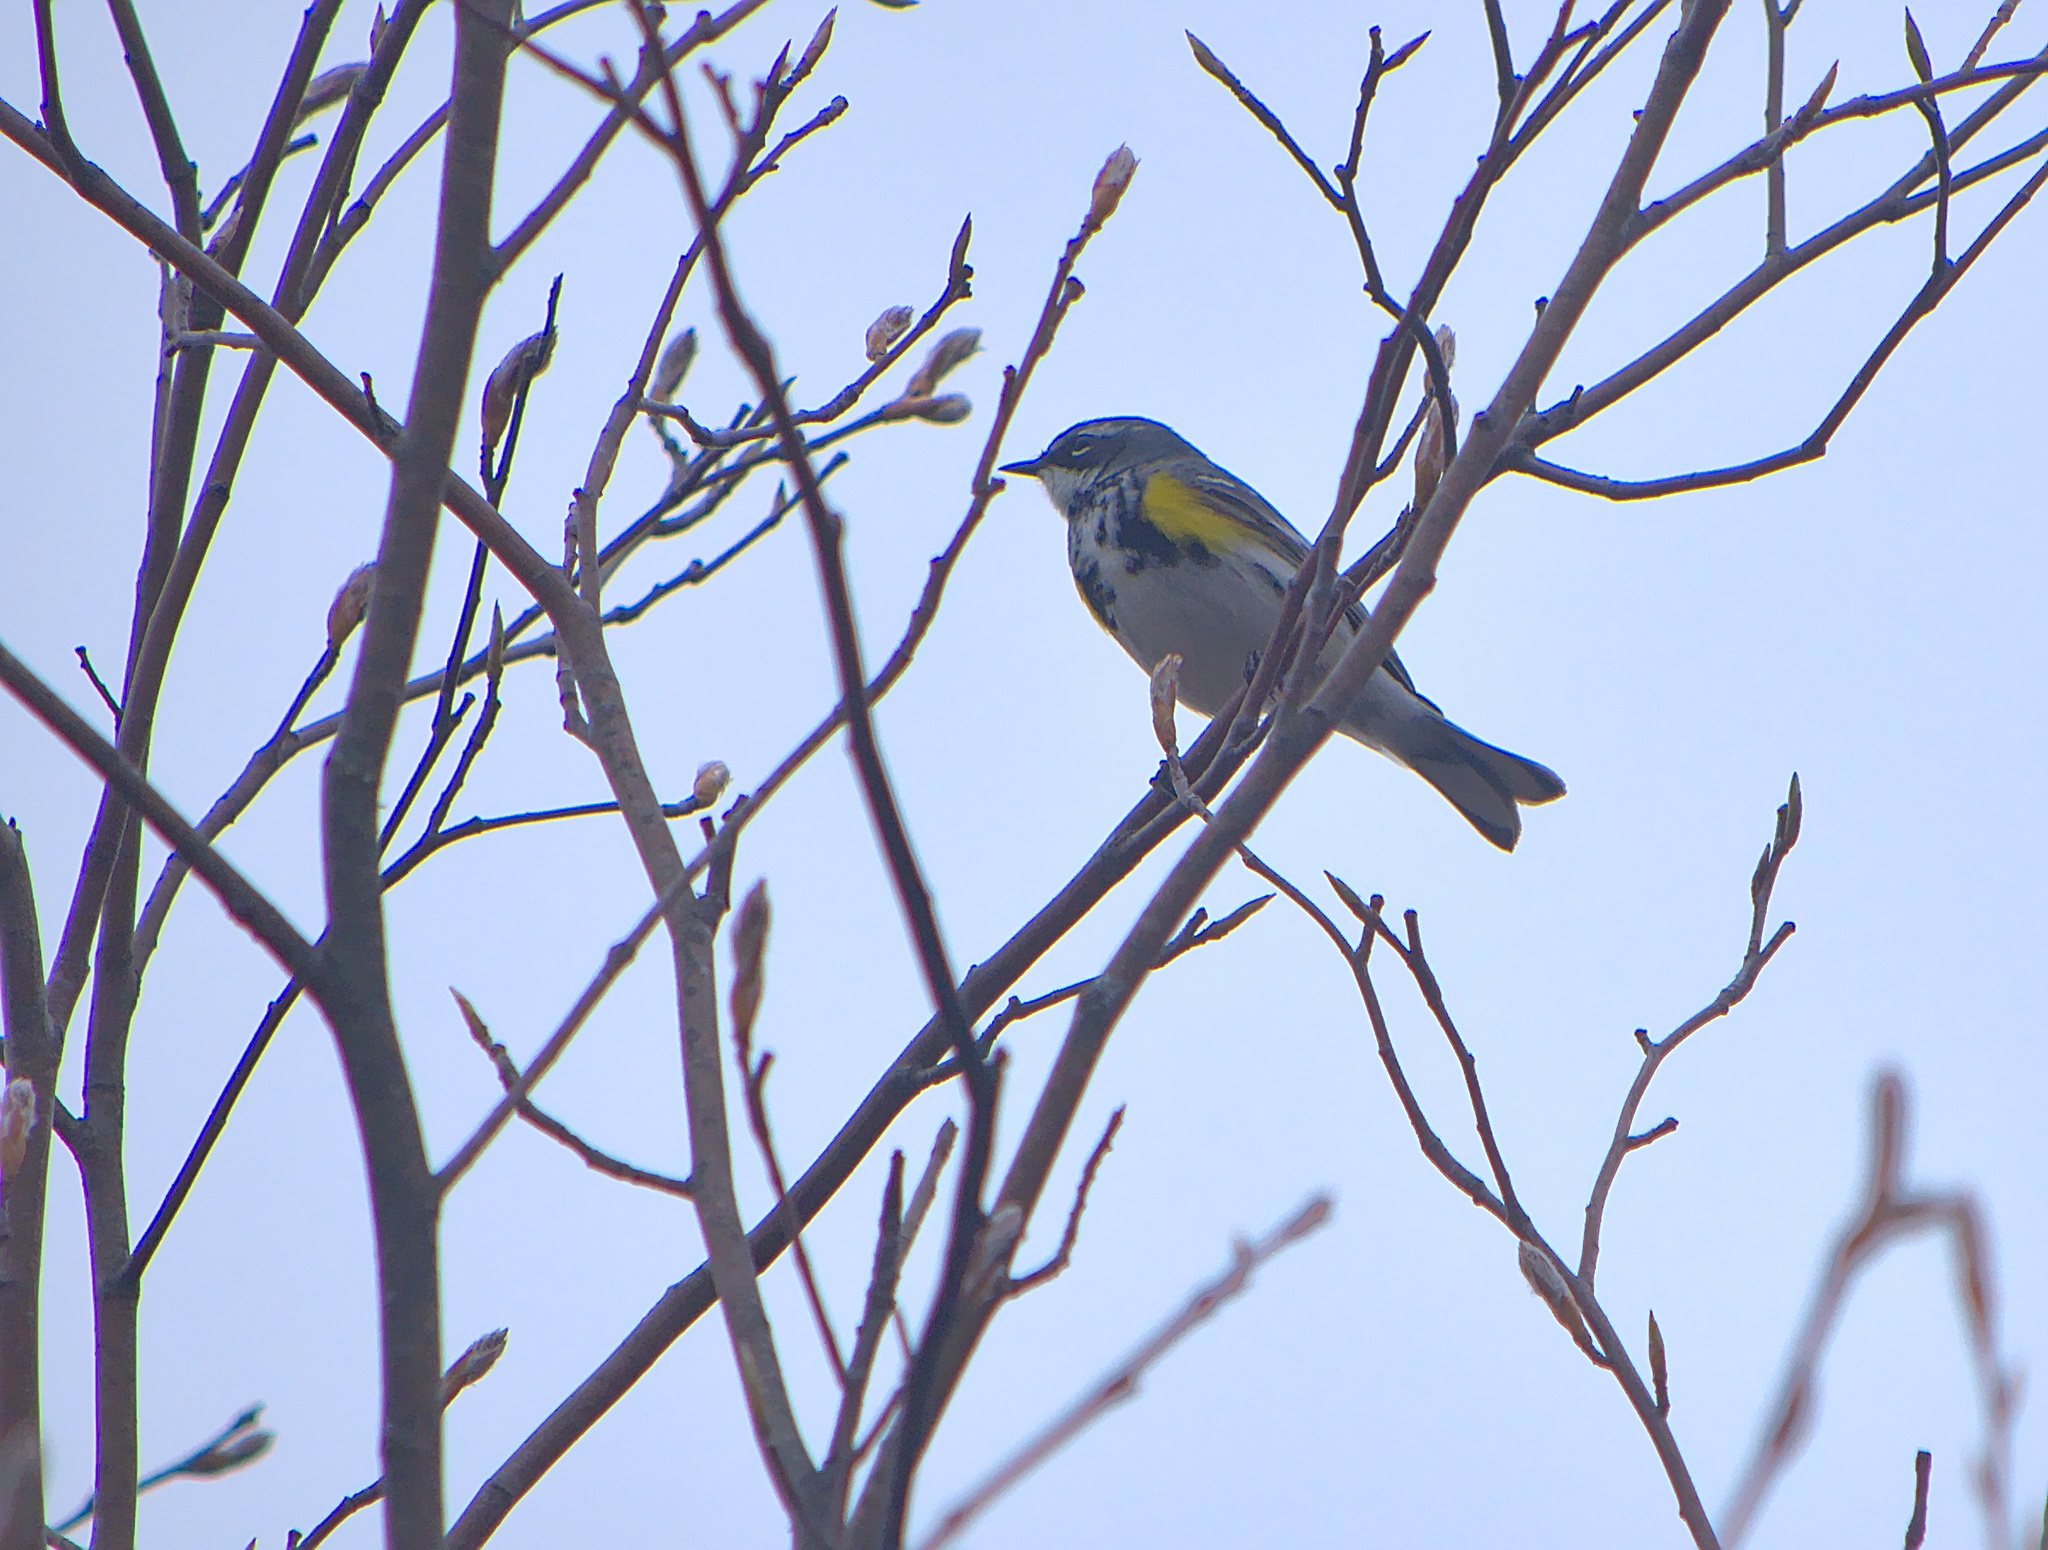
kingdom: Animalia
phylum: Chordata
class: Aves
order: Passeriformes
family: Parulidae
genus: Setophaga
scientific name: Setophaga coronata
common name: Myrtle warbler
